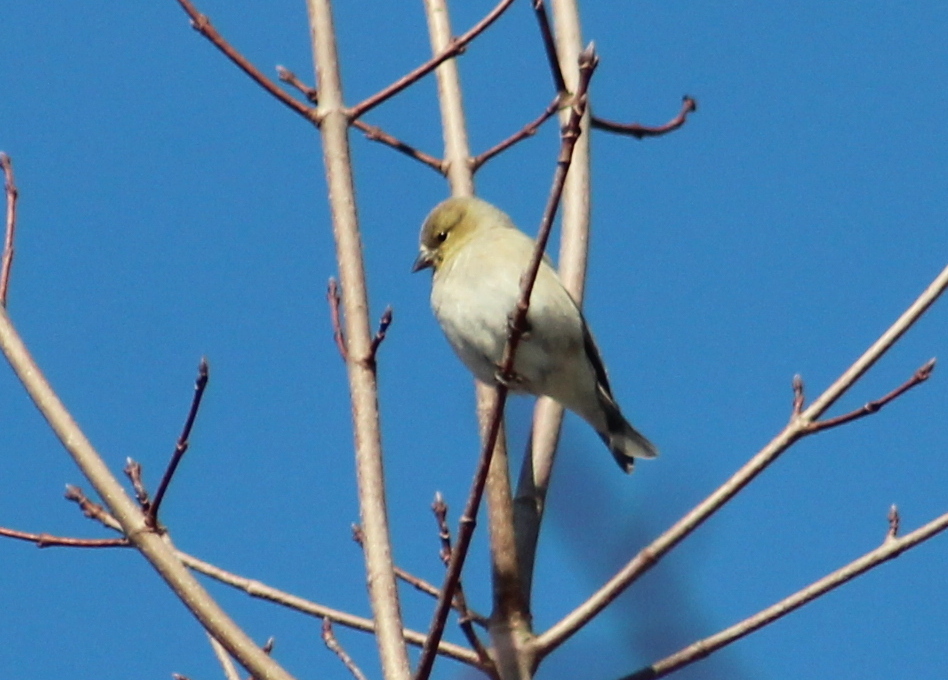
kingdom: Animalia
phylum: Chordata
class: Aves
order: Passeriformes
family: Fringillidae
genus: Spinus
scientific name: Spinus tristis
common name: American goldfinch
